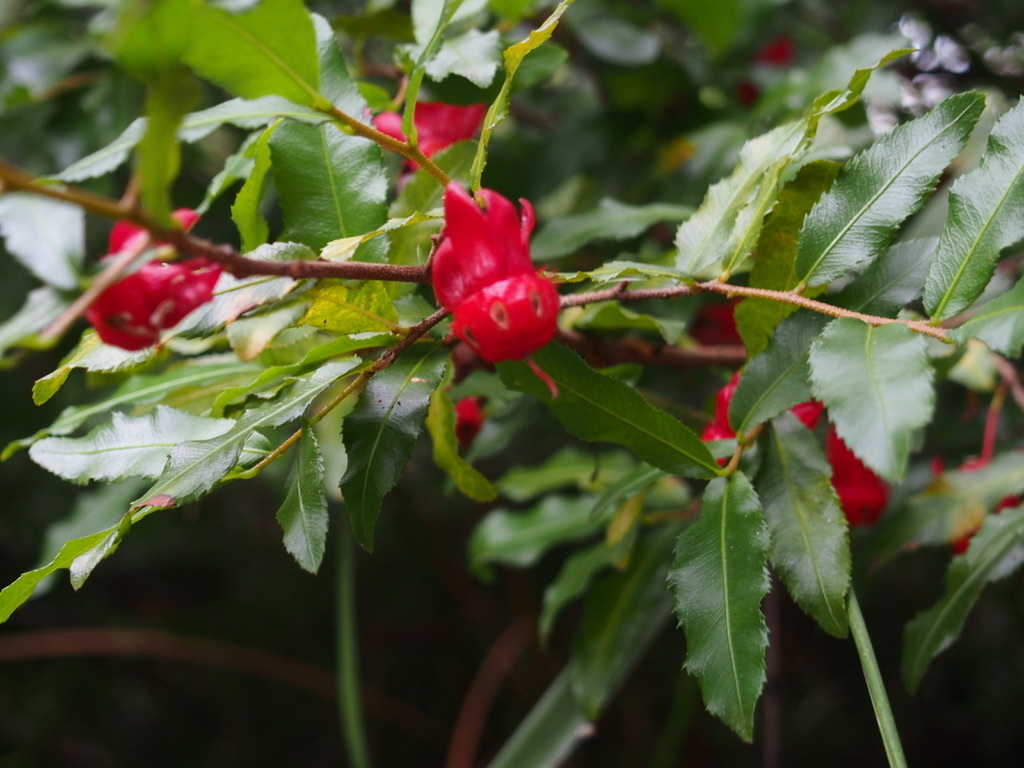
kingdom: Plantae
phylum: Tracheophyta
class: Magnoliopsida
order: Malpighiales
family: Ochnaceae
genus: Ochna
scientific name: Ochna serrulata
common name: Mickey mouse plant
